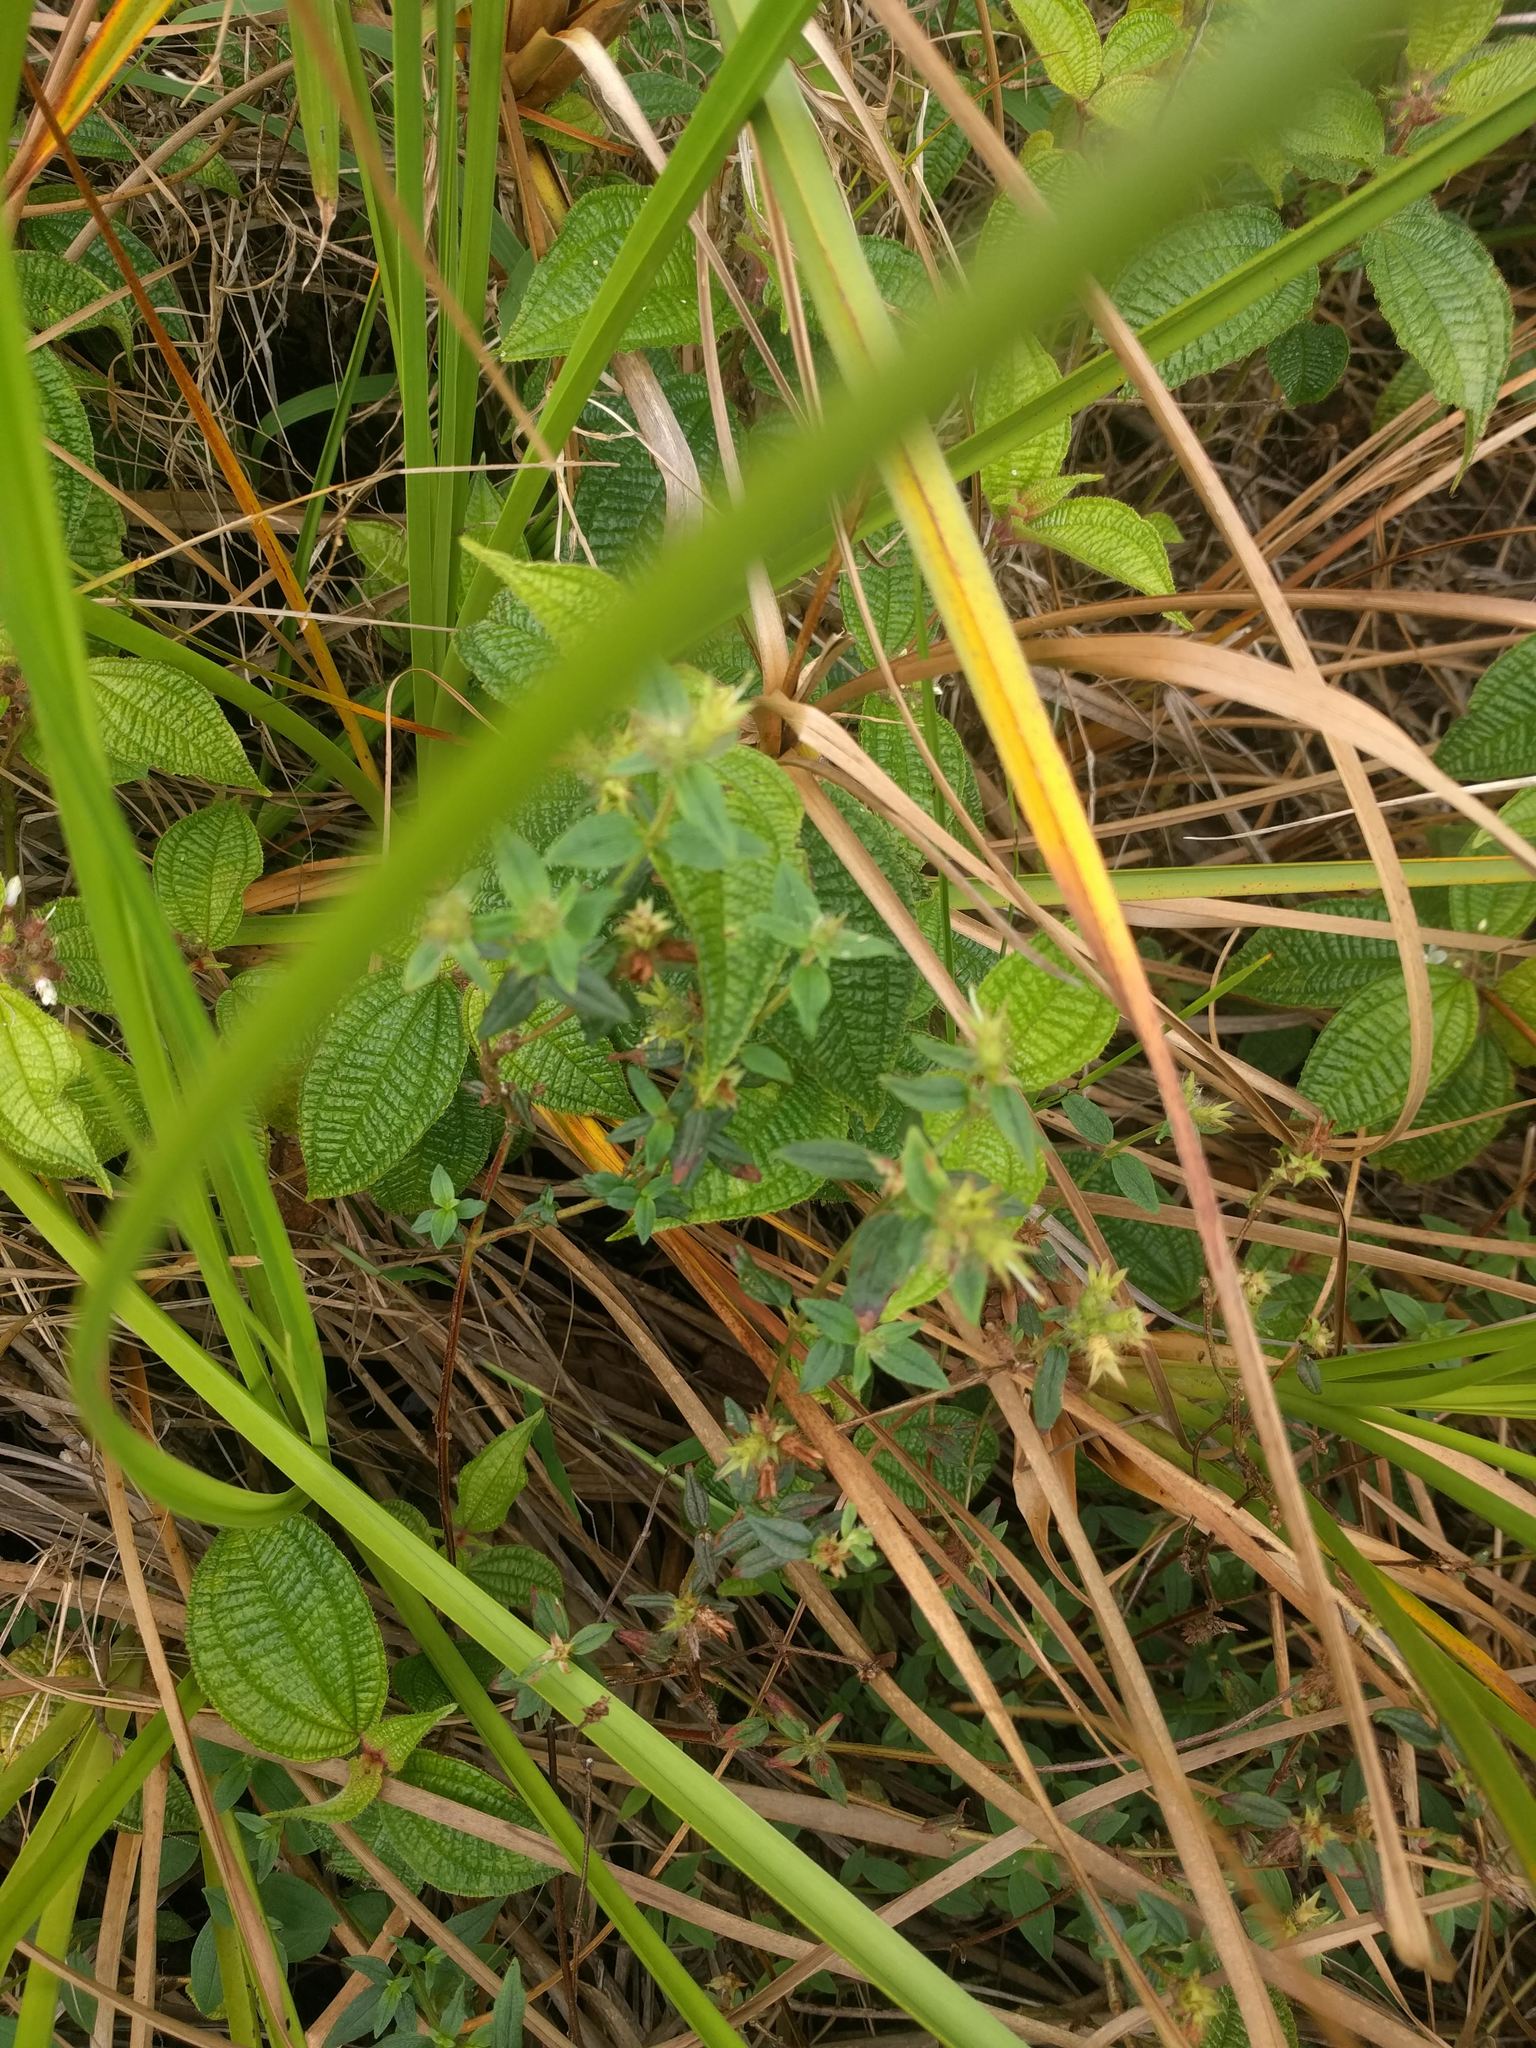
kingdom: Plantae
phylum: Tracheophyta
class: Magnoliopsida
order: Myrtales
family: Melastomataceae
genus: Pterolepis
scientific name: Pterolepis glomerata
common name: False meadowbeauty
